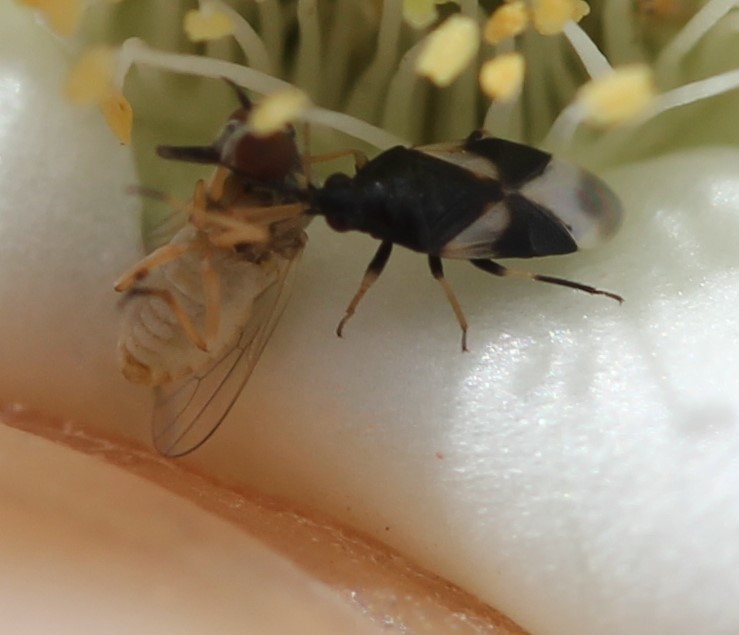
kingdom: Animalia
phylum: Arthropoda
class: Insecta
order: Hemiptera
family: Anthocoridae
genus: Orius
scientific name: Orius tristicolor
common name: Minute pirate bug
